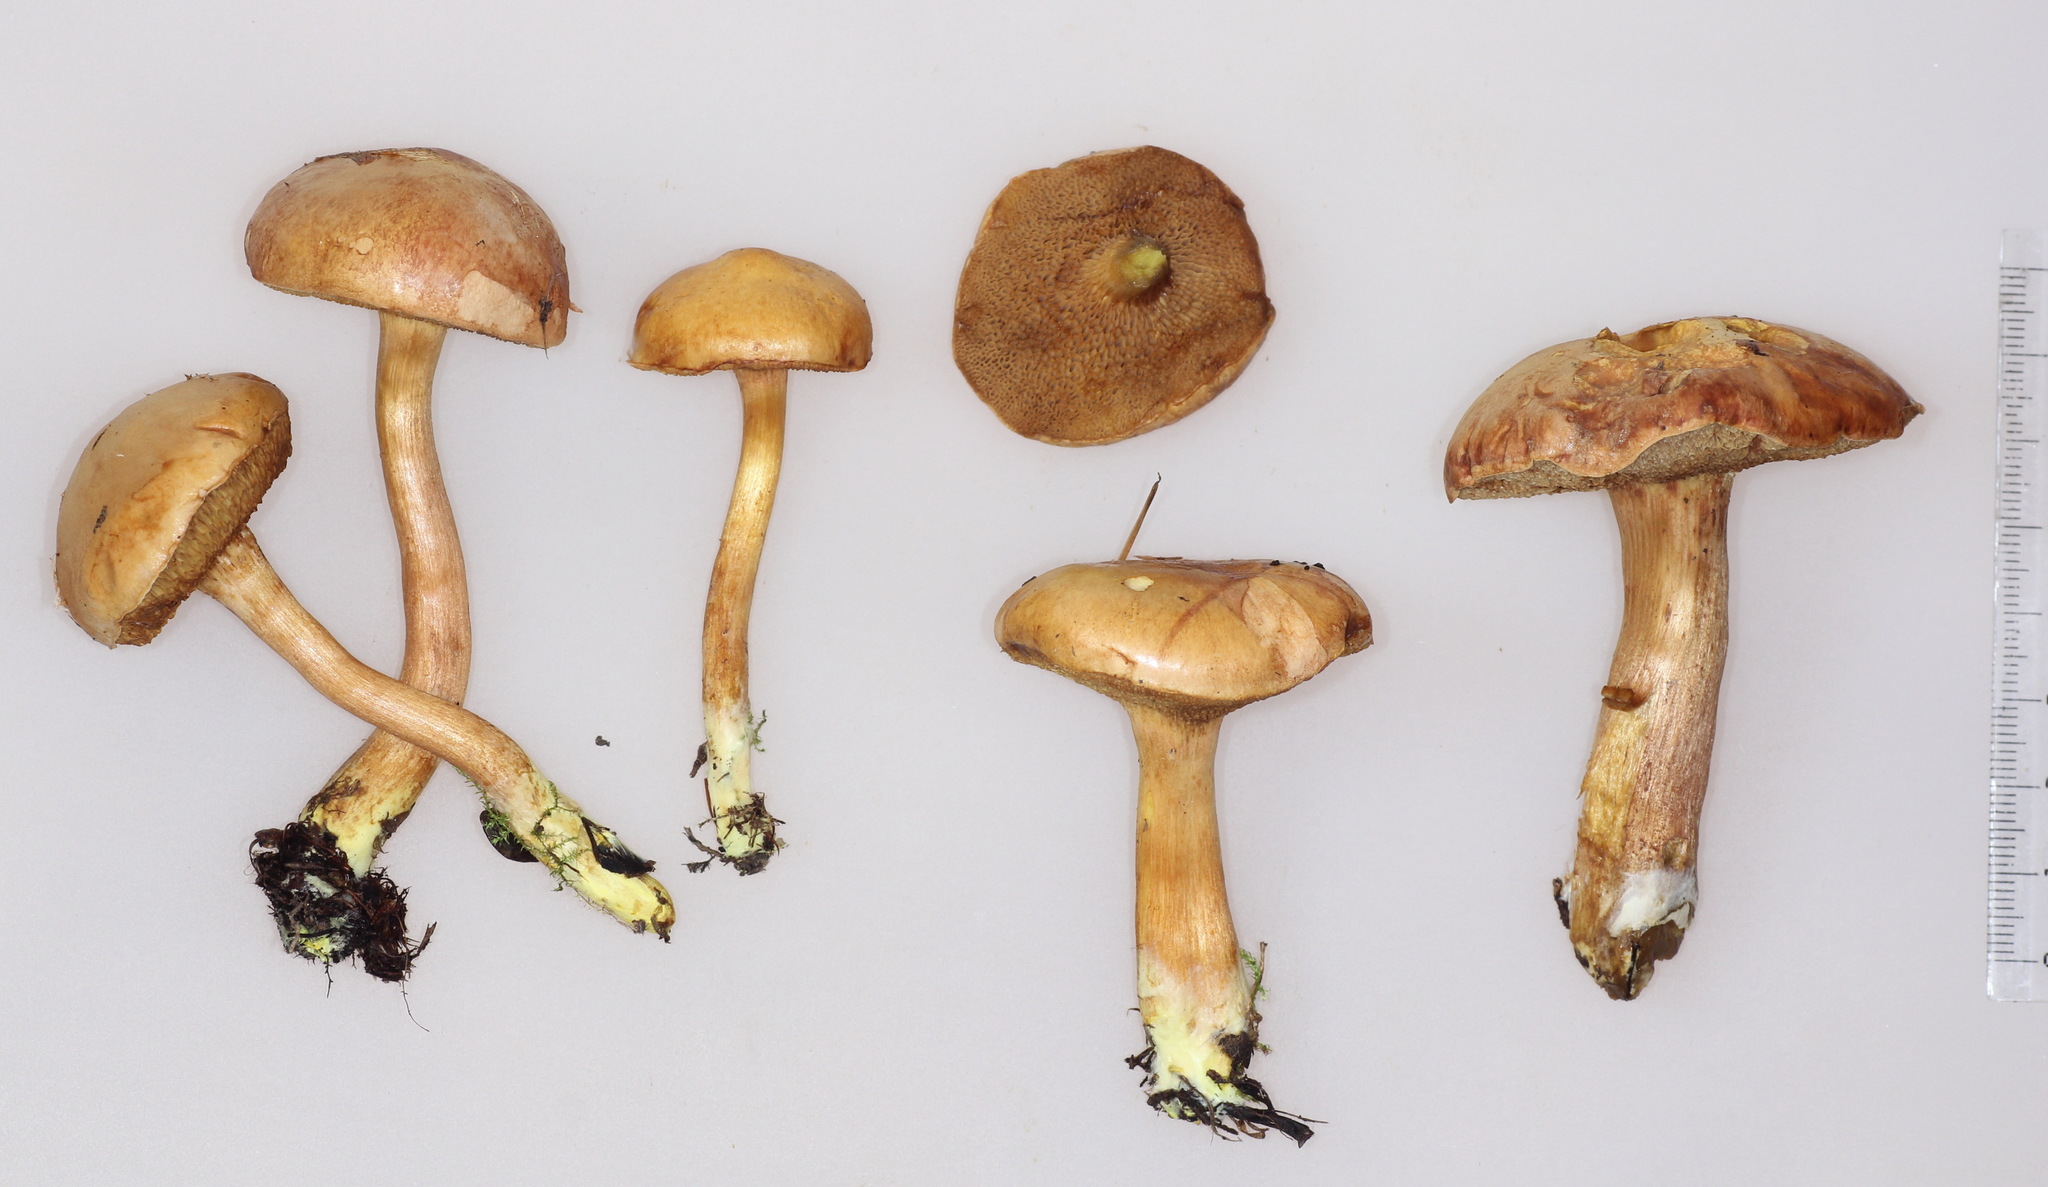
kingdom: Fungi
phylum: Basidiomycota
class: Agaricomycetes
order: Boletales
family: Boletaceae
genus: Chalciporus
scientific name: Chalciporus piperatus
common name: Peppery bolete
